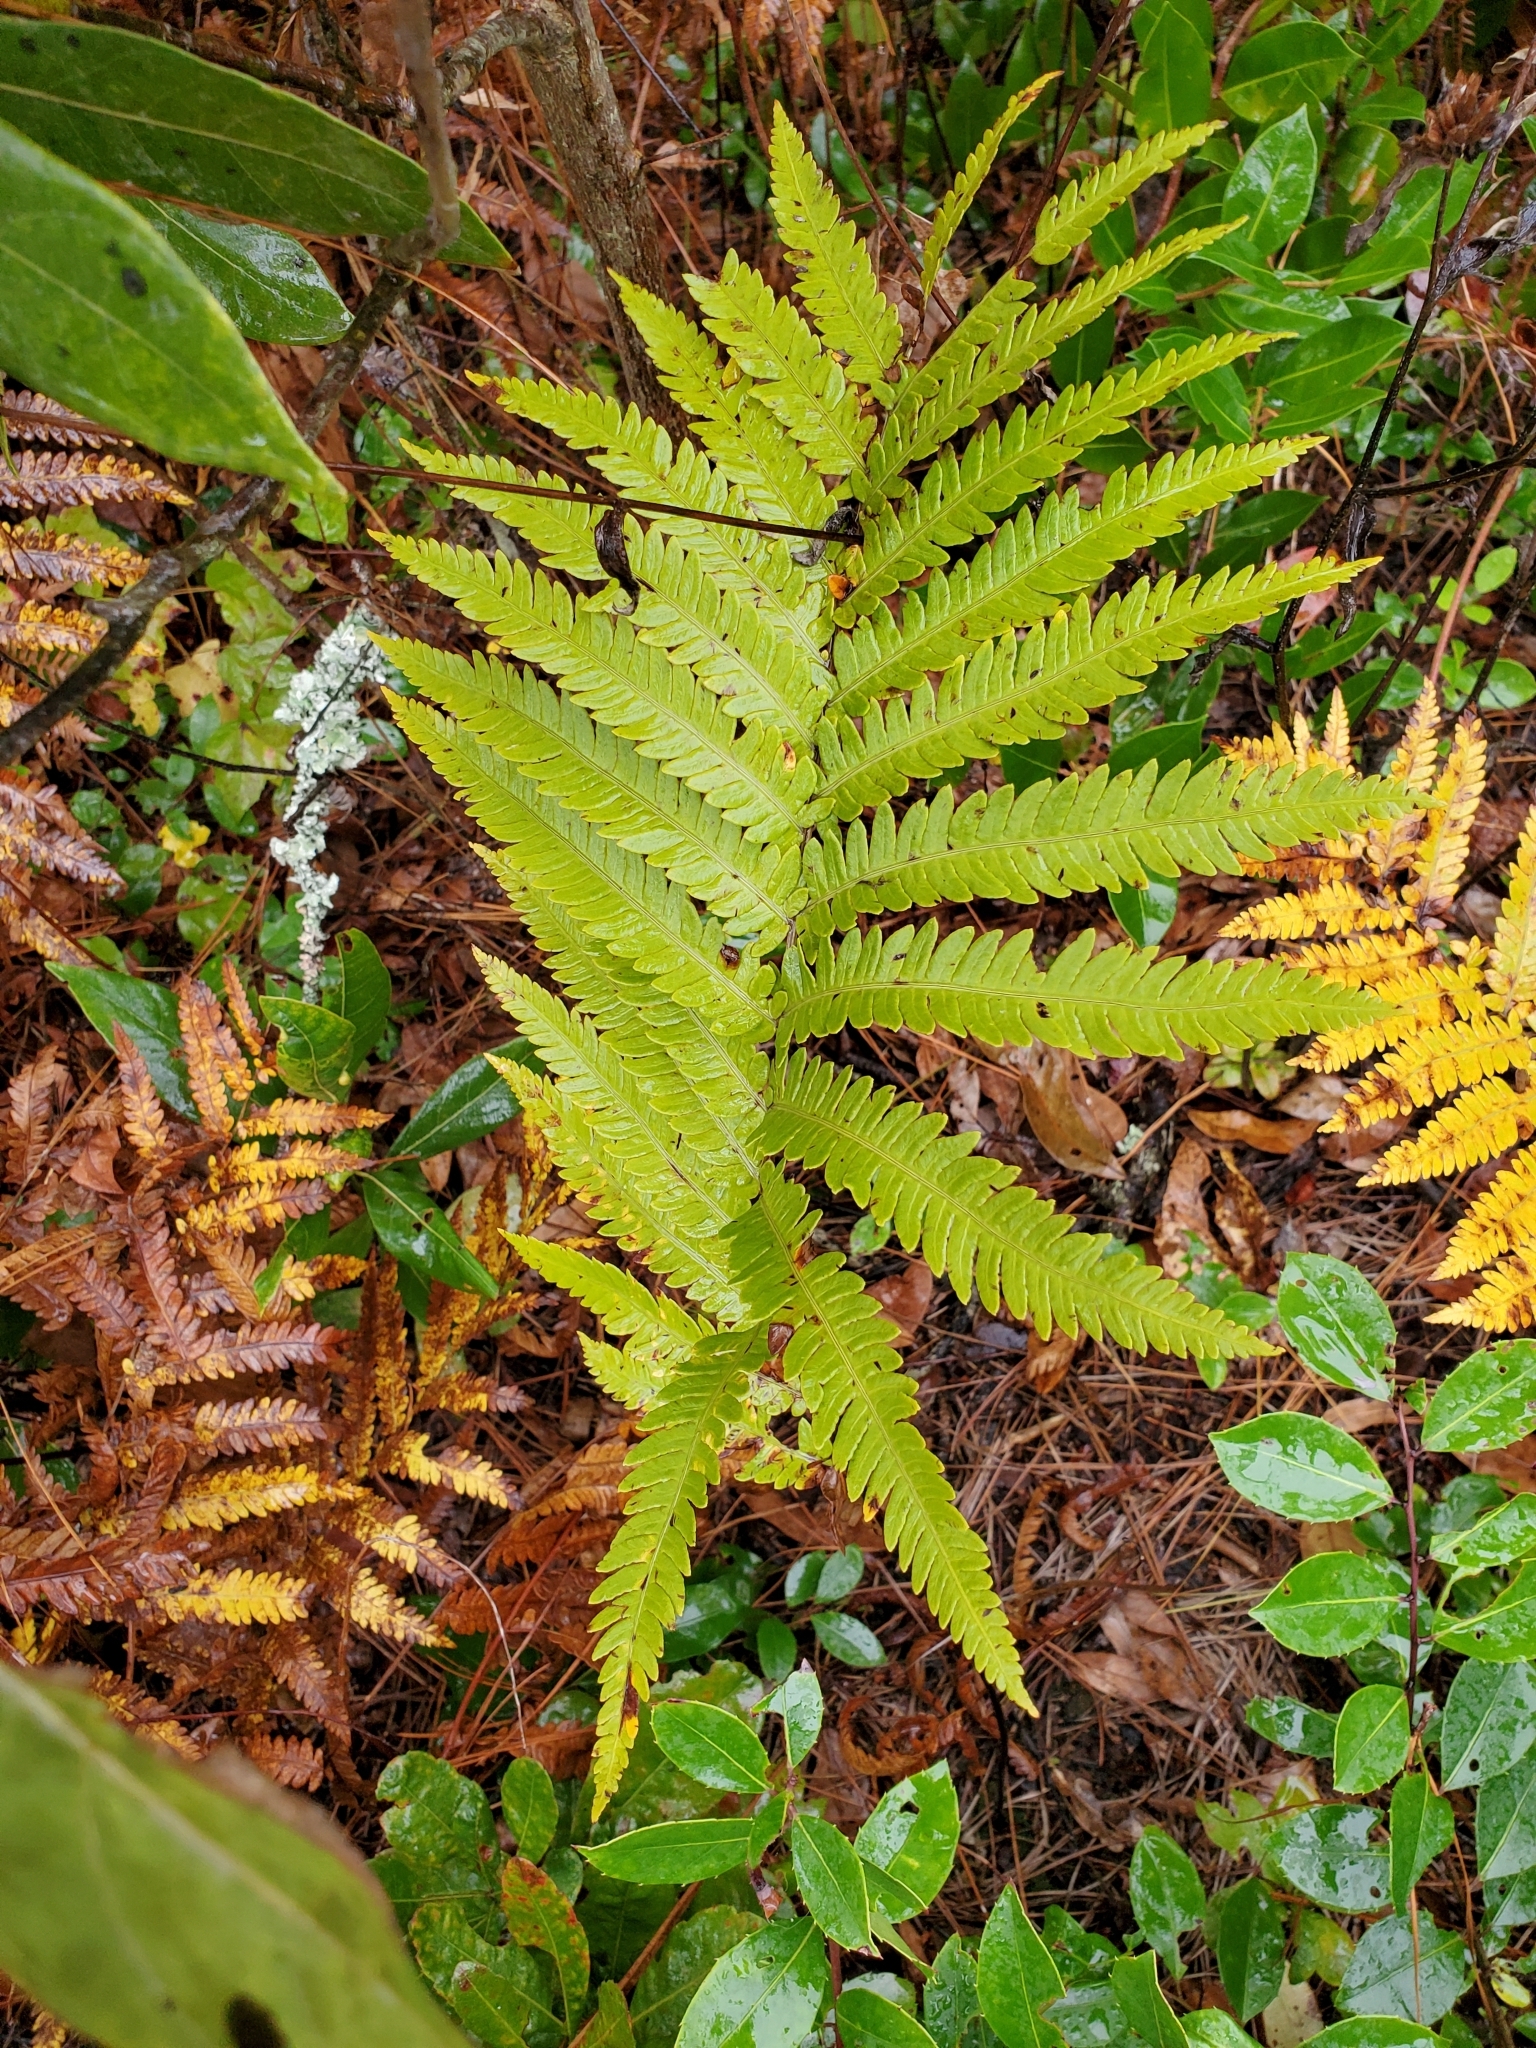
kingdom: Plantae
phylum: Tracheophyta
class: Polypodiopsida
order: Polypodiales
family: Blechnaceae
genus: Anchistea
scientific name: Anchistea virginica
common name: Virginia chain fern
